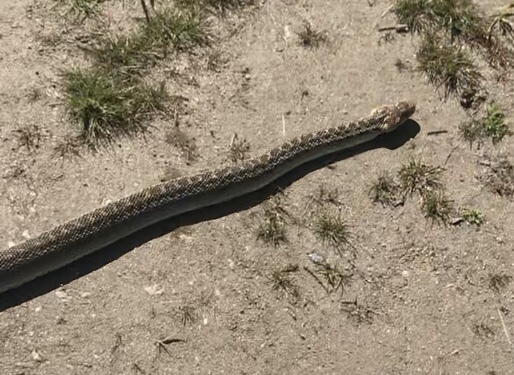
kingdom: Animalia
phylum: Chordata
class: Squamata
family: Colubridae
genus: Pituophis
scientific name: Pituophis catenifer
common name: Gopher snake
